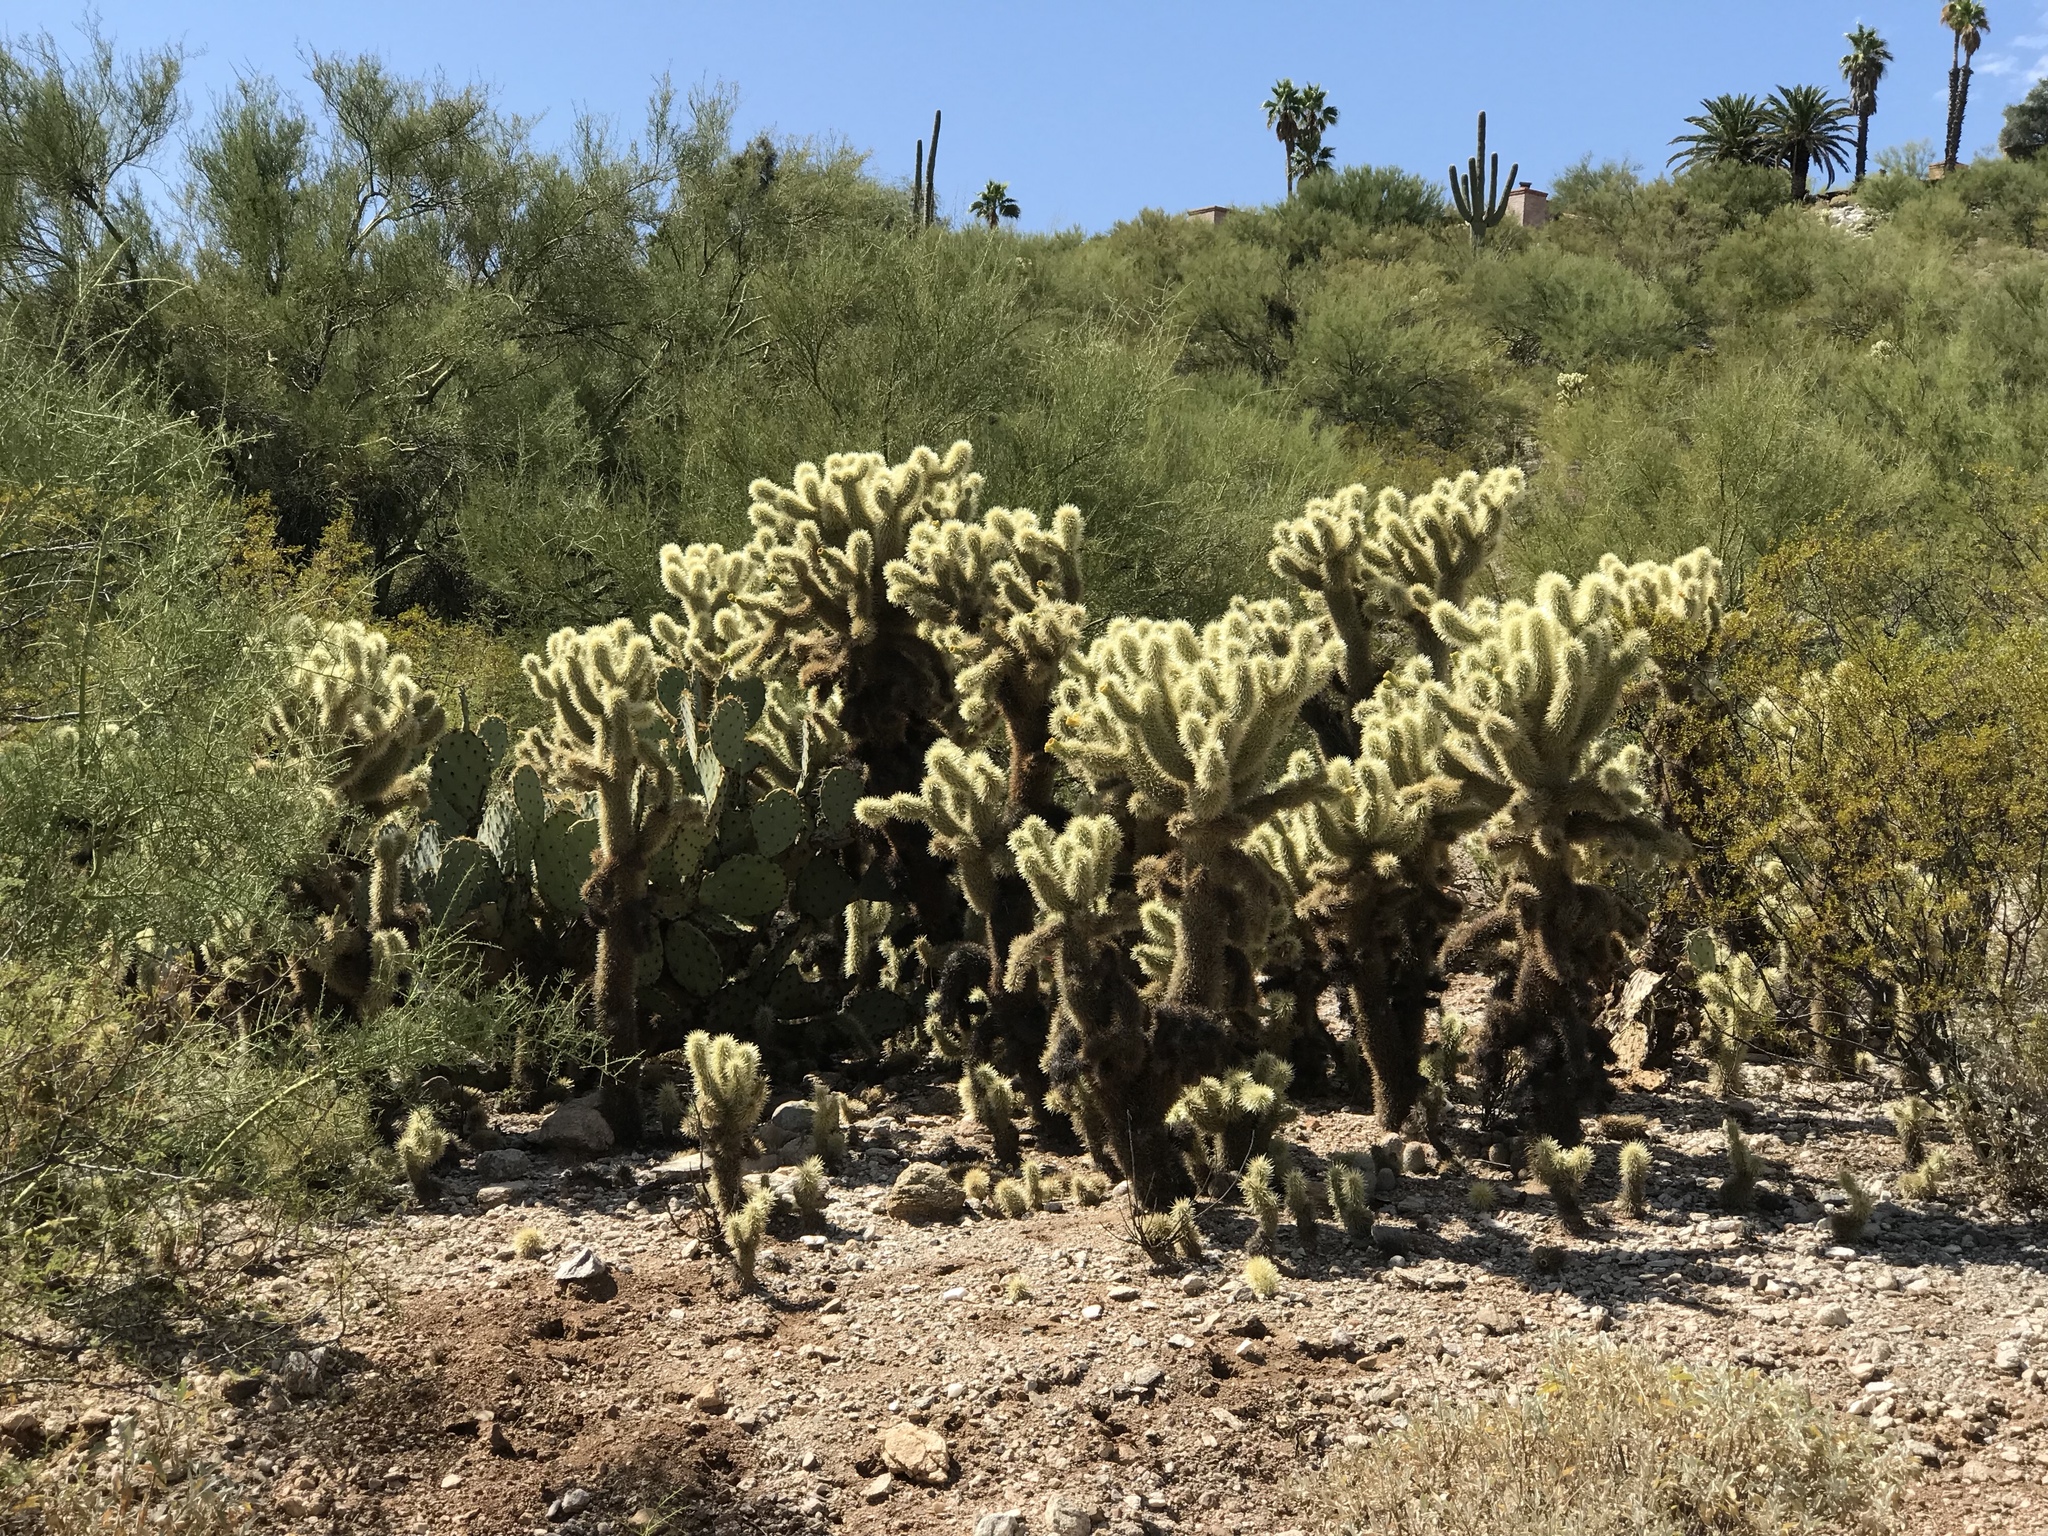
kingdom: Plantae
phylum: Tracheophyta
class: Magnoliopsida
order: Caryophyllales
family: Cactaceae
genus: Cylindropuntia
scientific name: Cylindropuntia fosbergii
